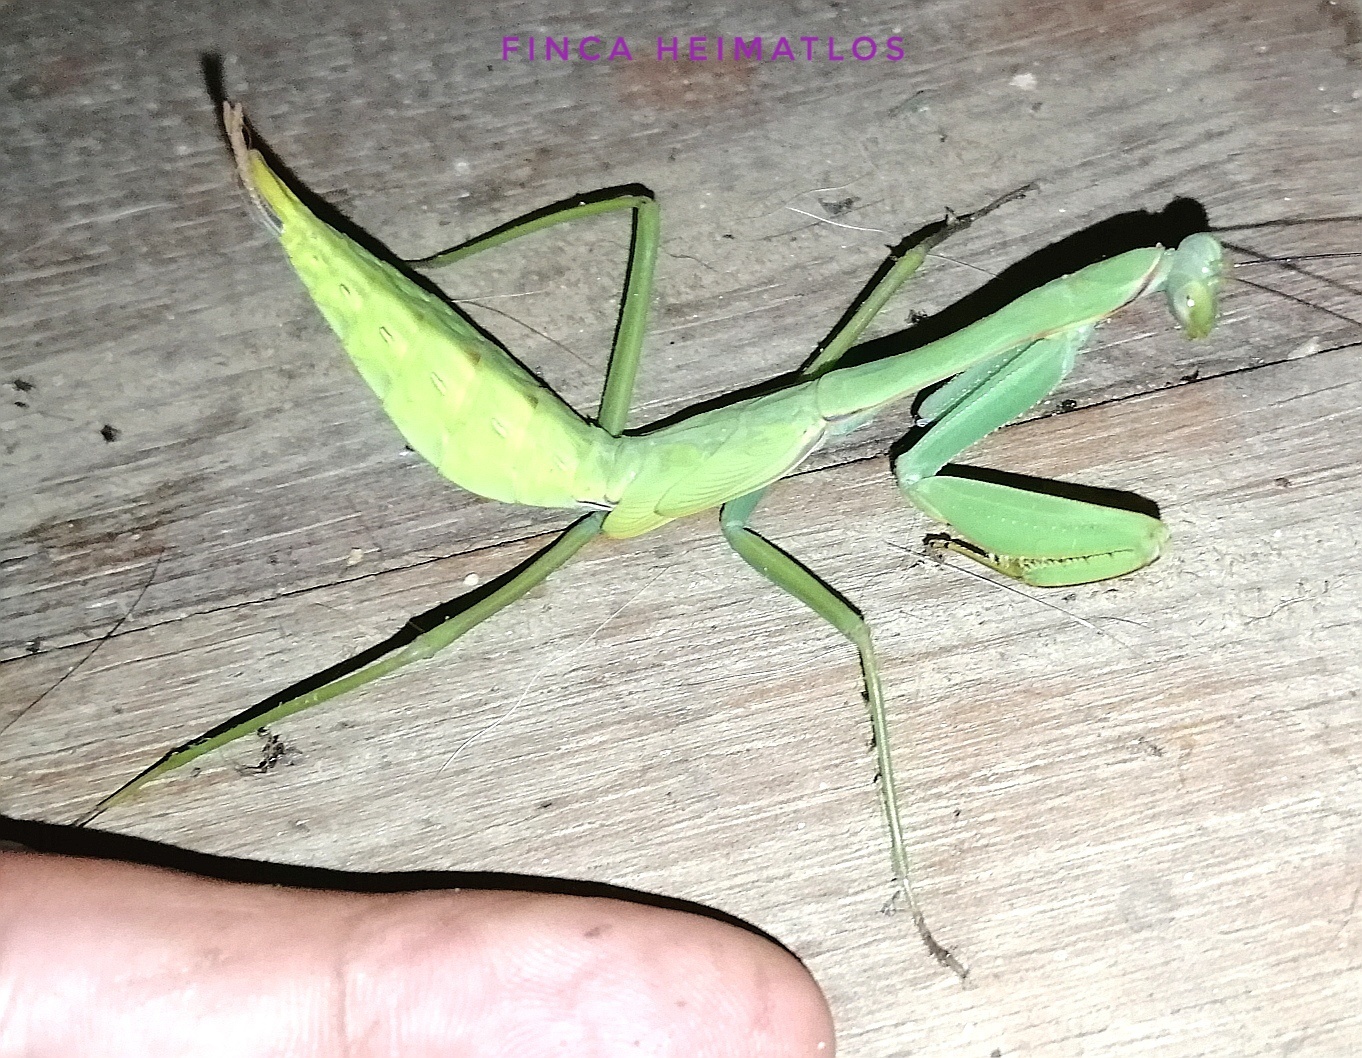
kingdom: Animalia
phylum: Arthropoda
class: Insecta
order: Mantodea
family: Photinaidae
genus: Macromantis
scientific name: Macromantis hyalina
